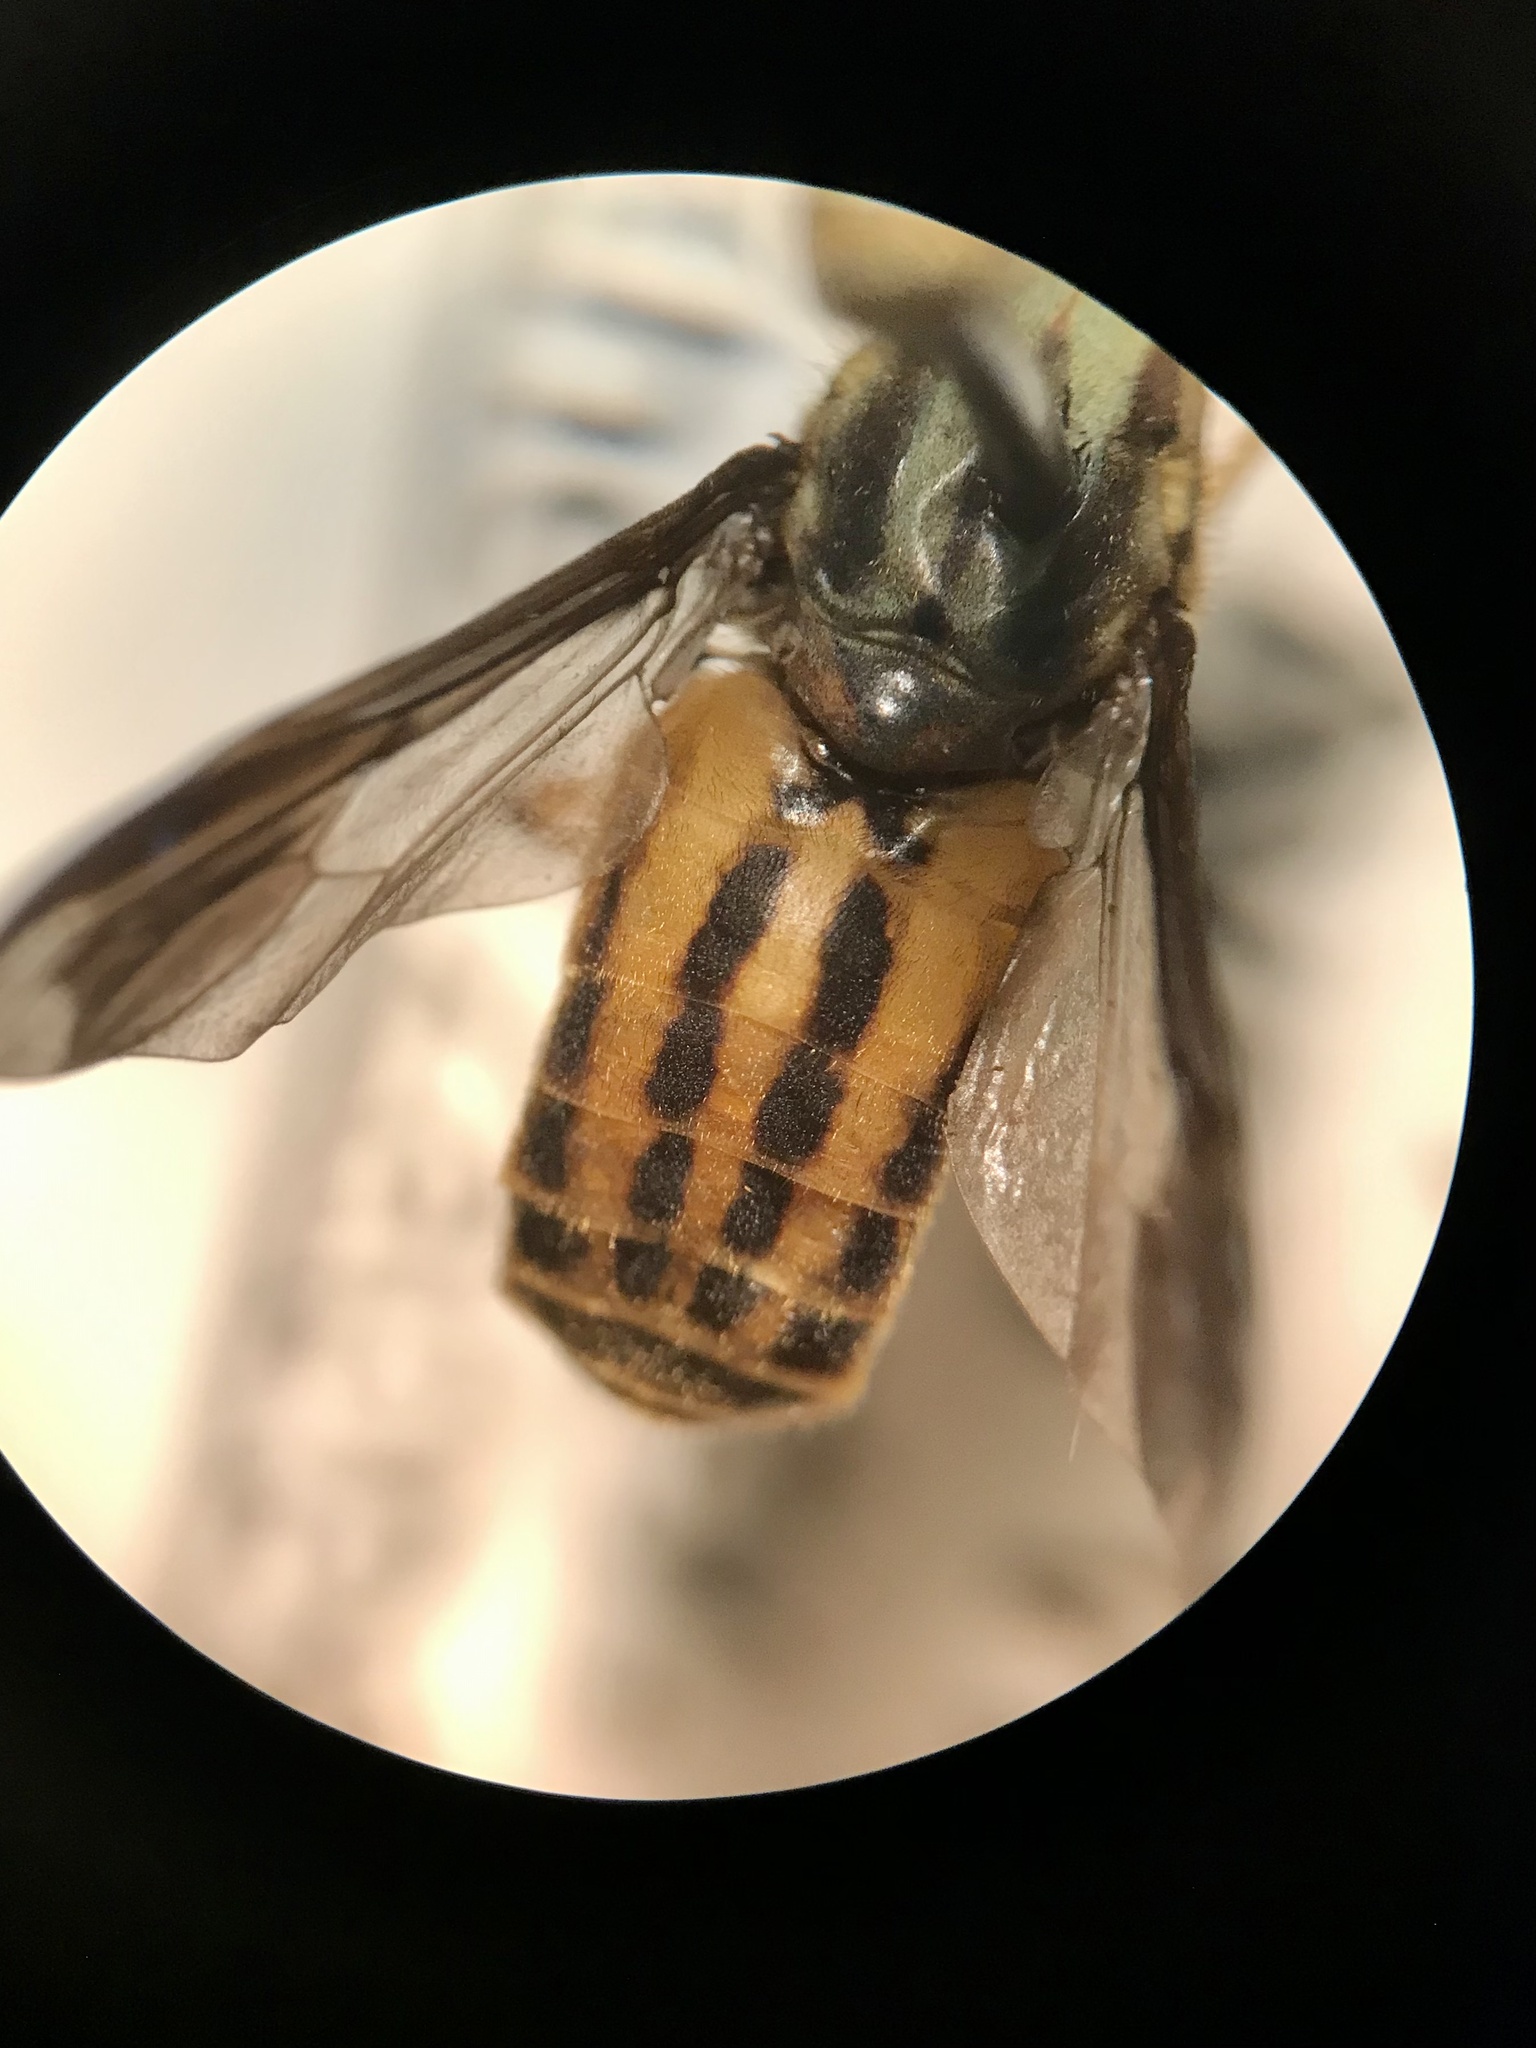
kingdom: Animalia
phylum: Arthropoda
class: Insecta
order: Diptera
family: Tabanidae
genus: Chrysops
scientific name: Chrysops aberrans
